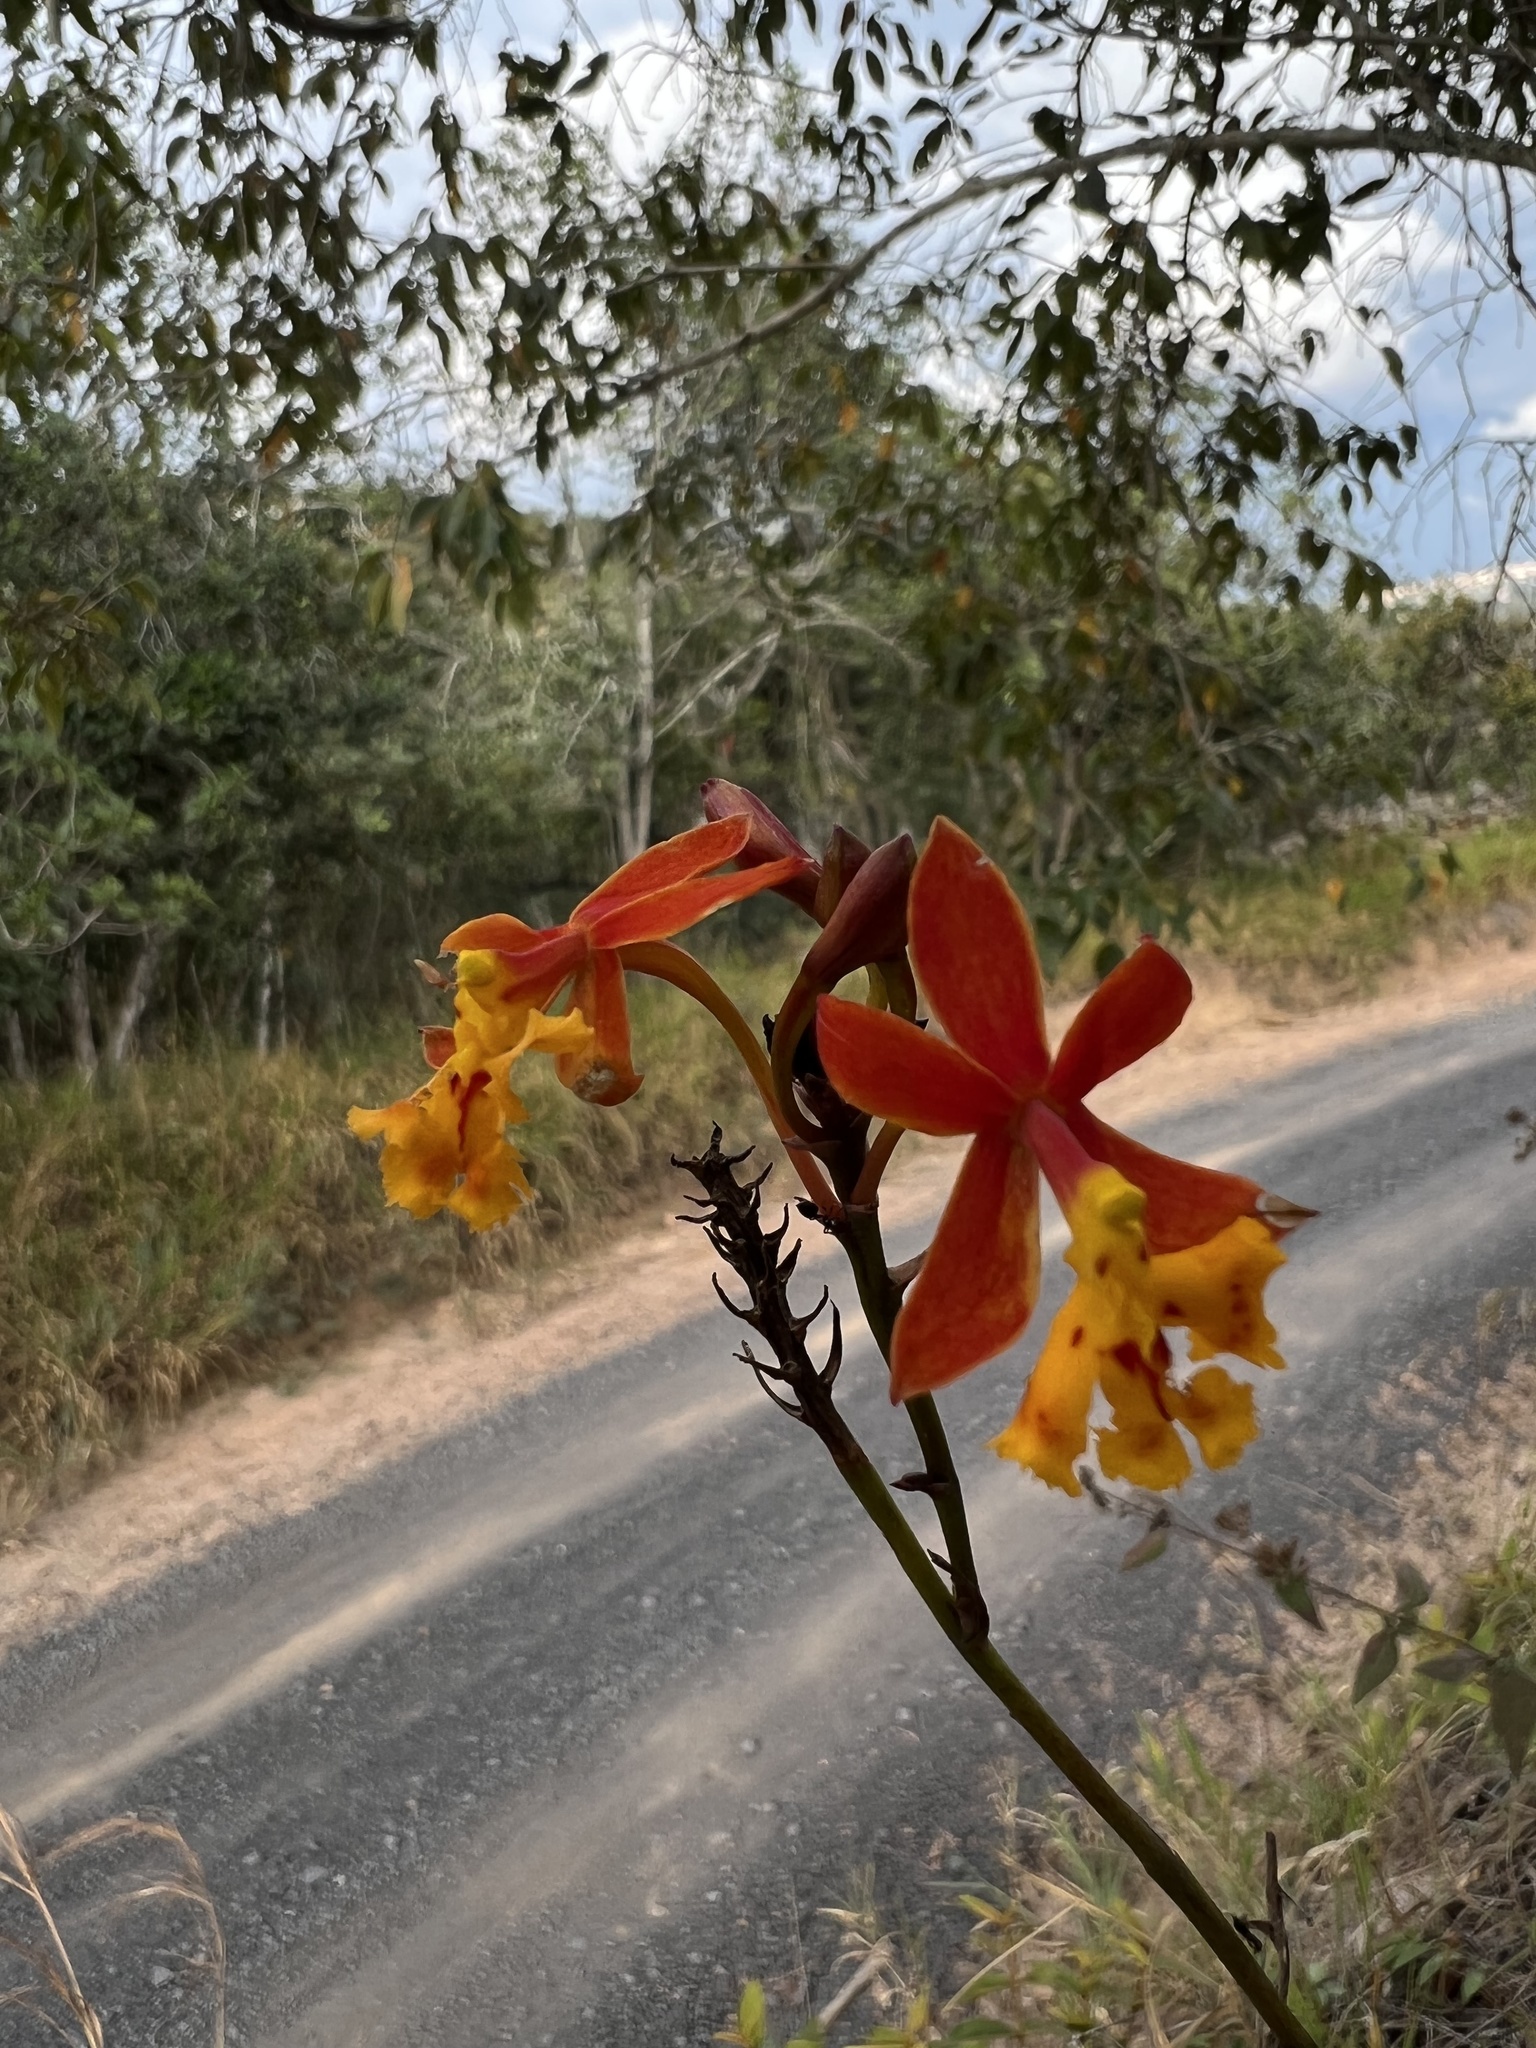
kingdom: Plantae
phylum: Tracheophyta
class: Liliopsida
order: Asparagales
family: Orchidaceae
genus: Epidendrum
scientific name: Epidendrum ibaguense
